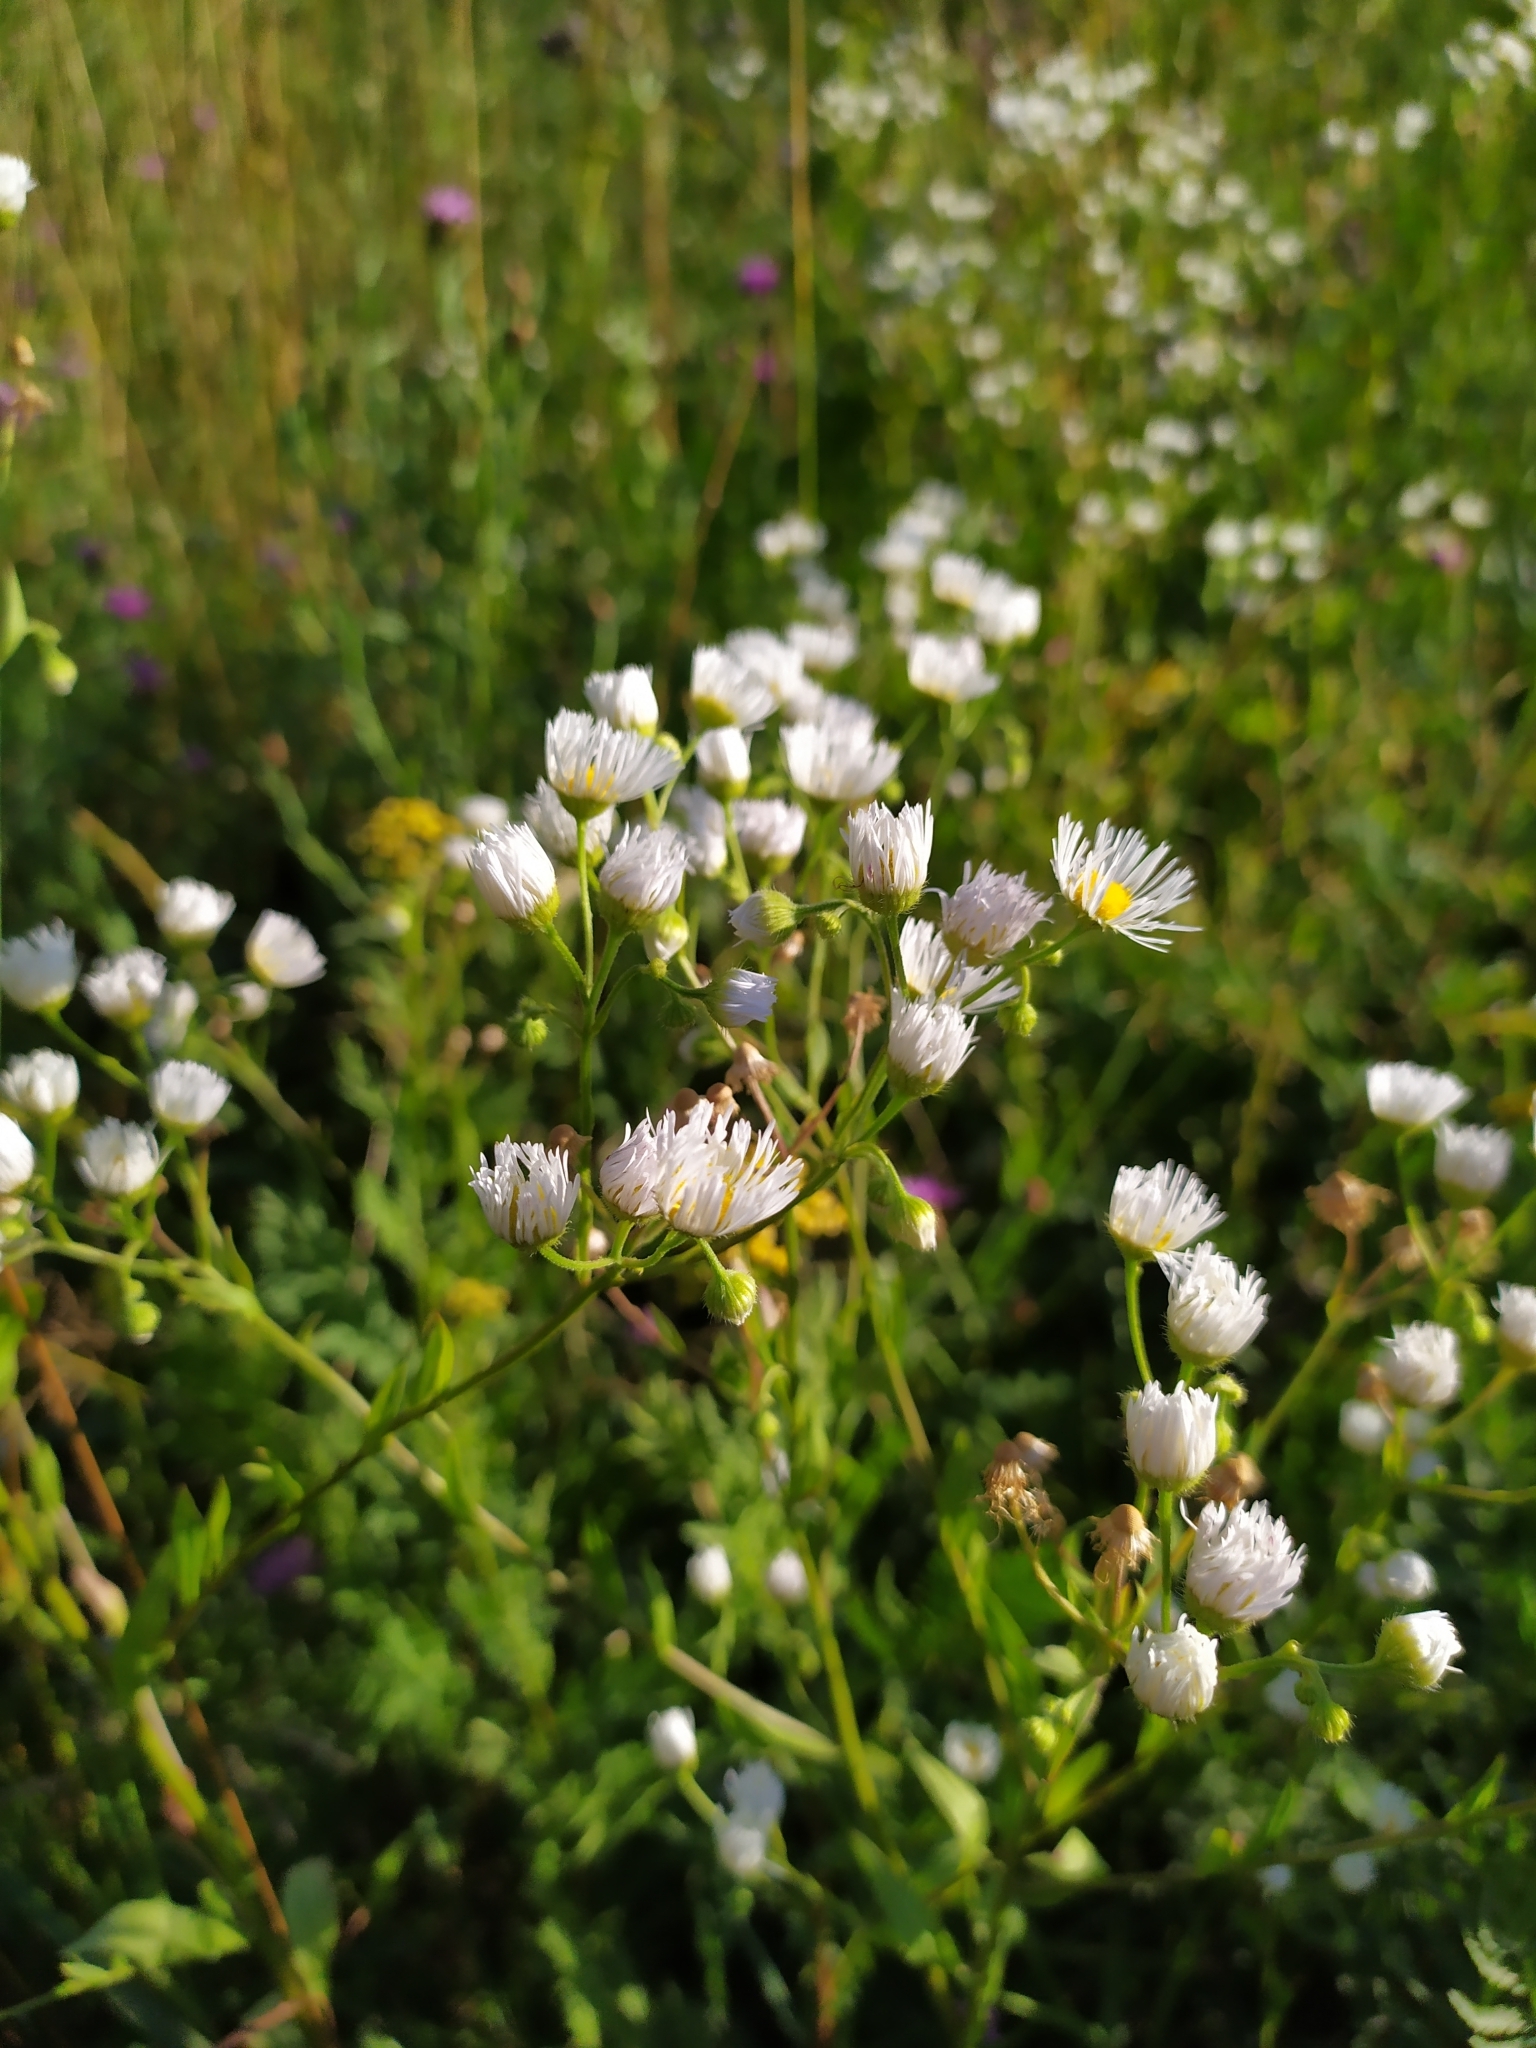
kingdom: Plantae
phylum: Tracheophyta
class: Magnoliopsida
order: Asterales
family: Asteraceae
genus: Erigeron
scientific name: Erigeron annuus
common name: Tall fleabane
